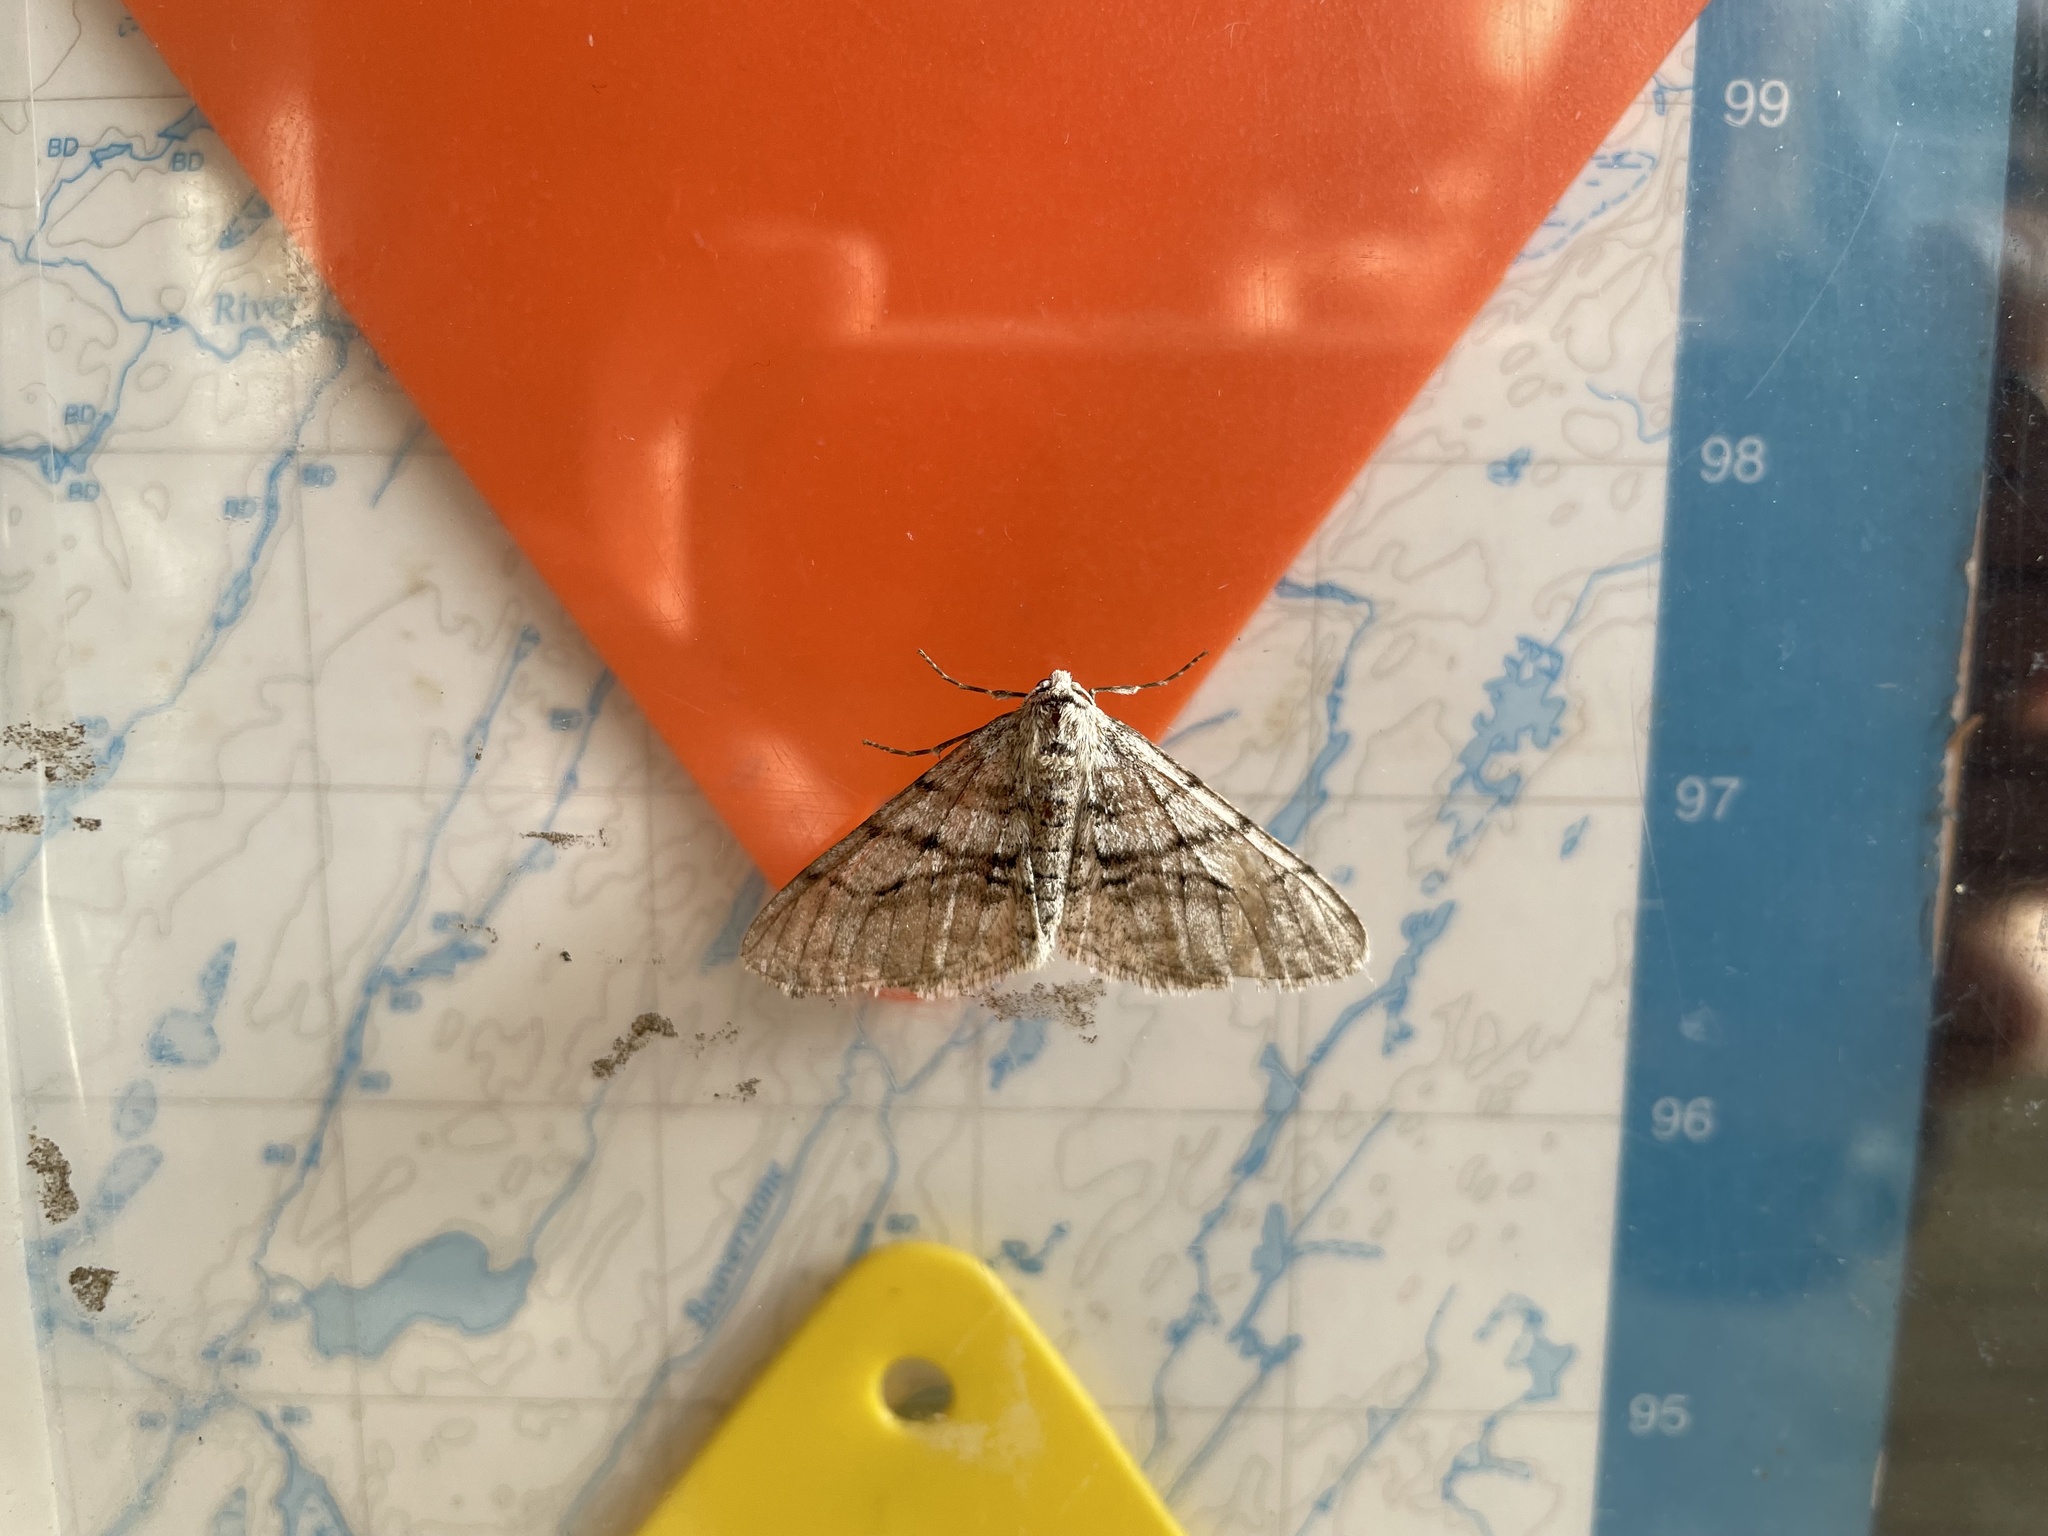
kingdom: Animalia
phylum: Arthropoda
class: Insecta
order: Lepidoptera
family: Geometridae
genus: Phigalia
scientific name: Phigalia titea
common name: Spiny looper
